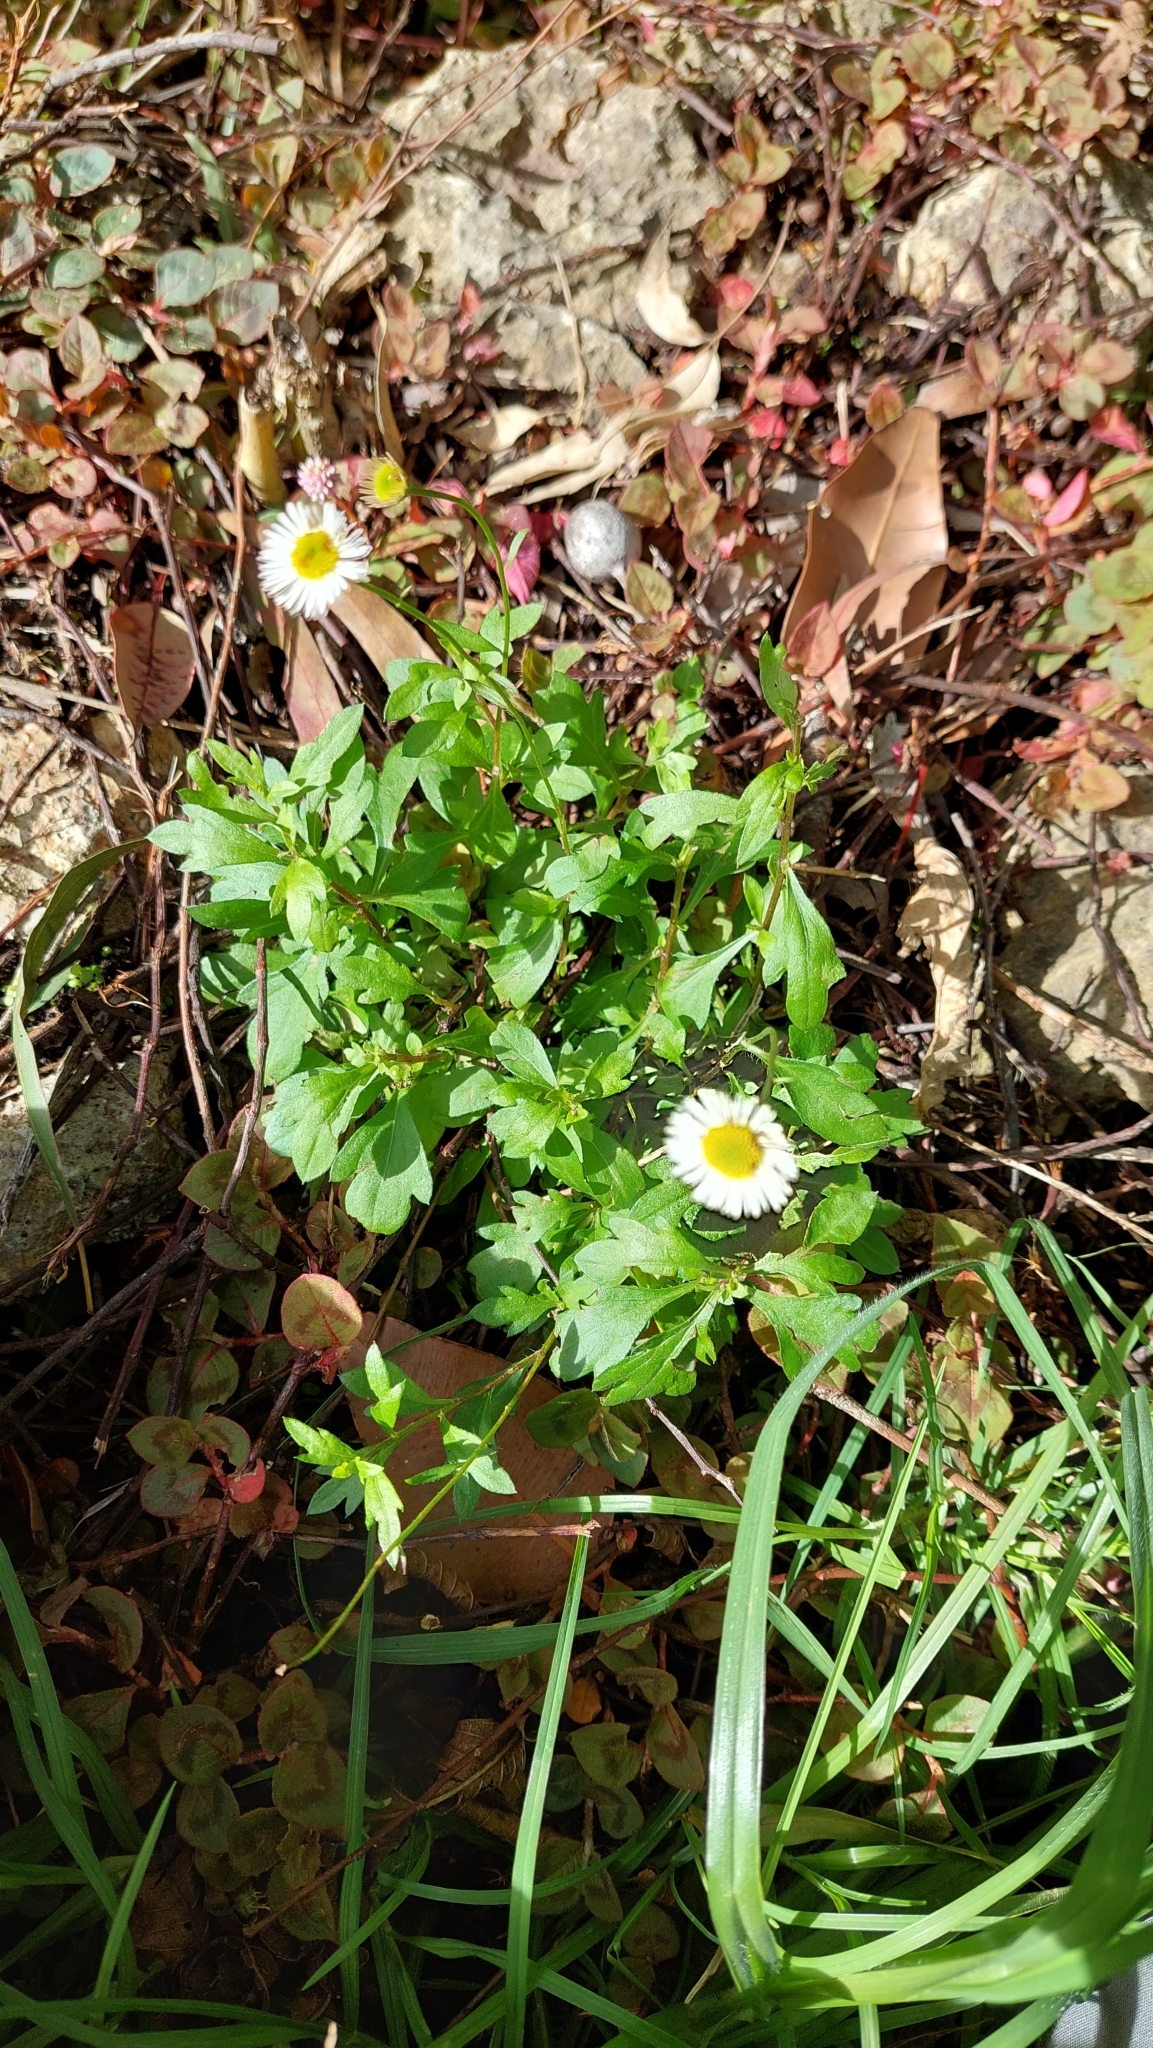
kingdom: Plantae
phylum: Tracheophyta
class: Magnoliopsida
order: Asterales
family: Asteraceae
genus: Erigeron
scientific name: Erigeron karvinskianus
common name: Mexican fleabane
